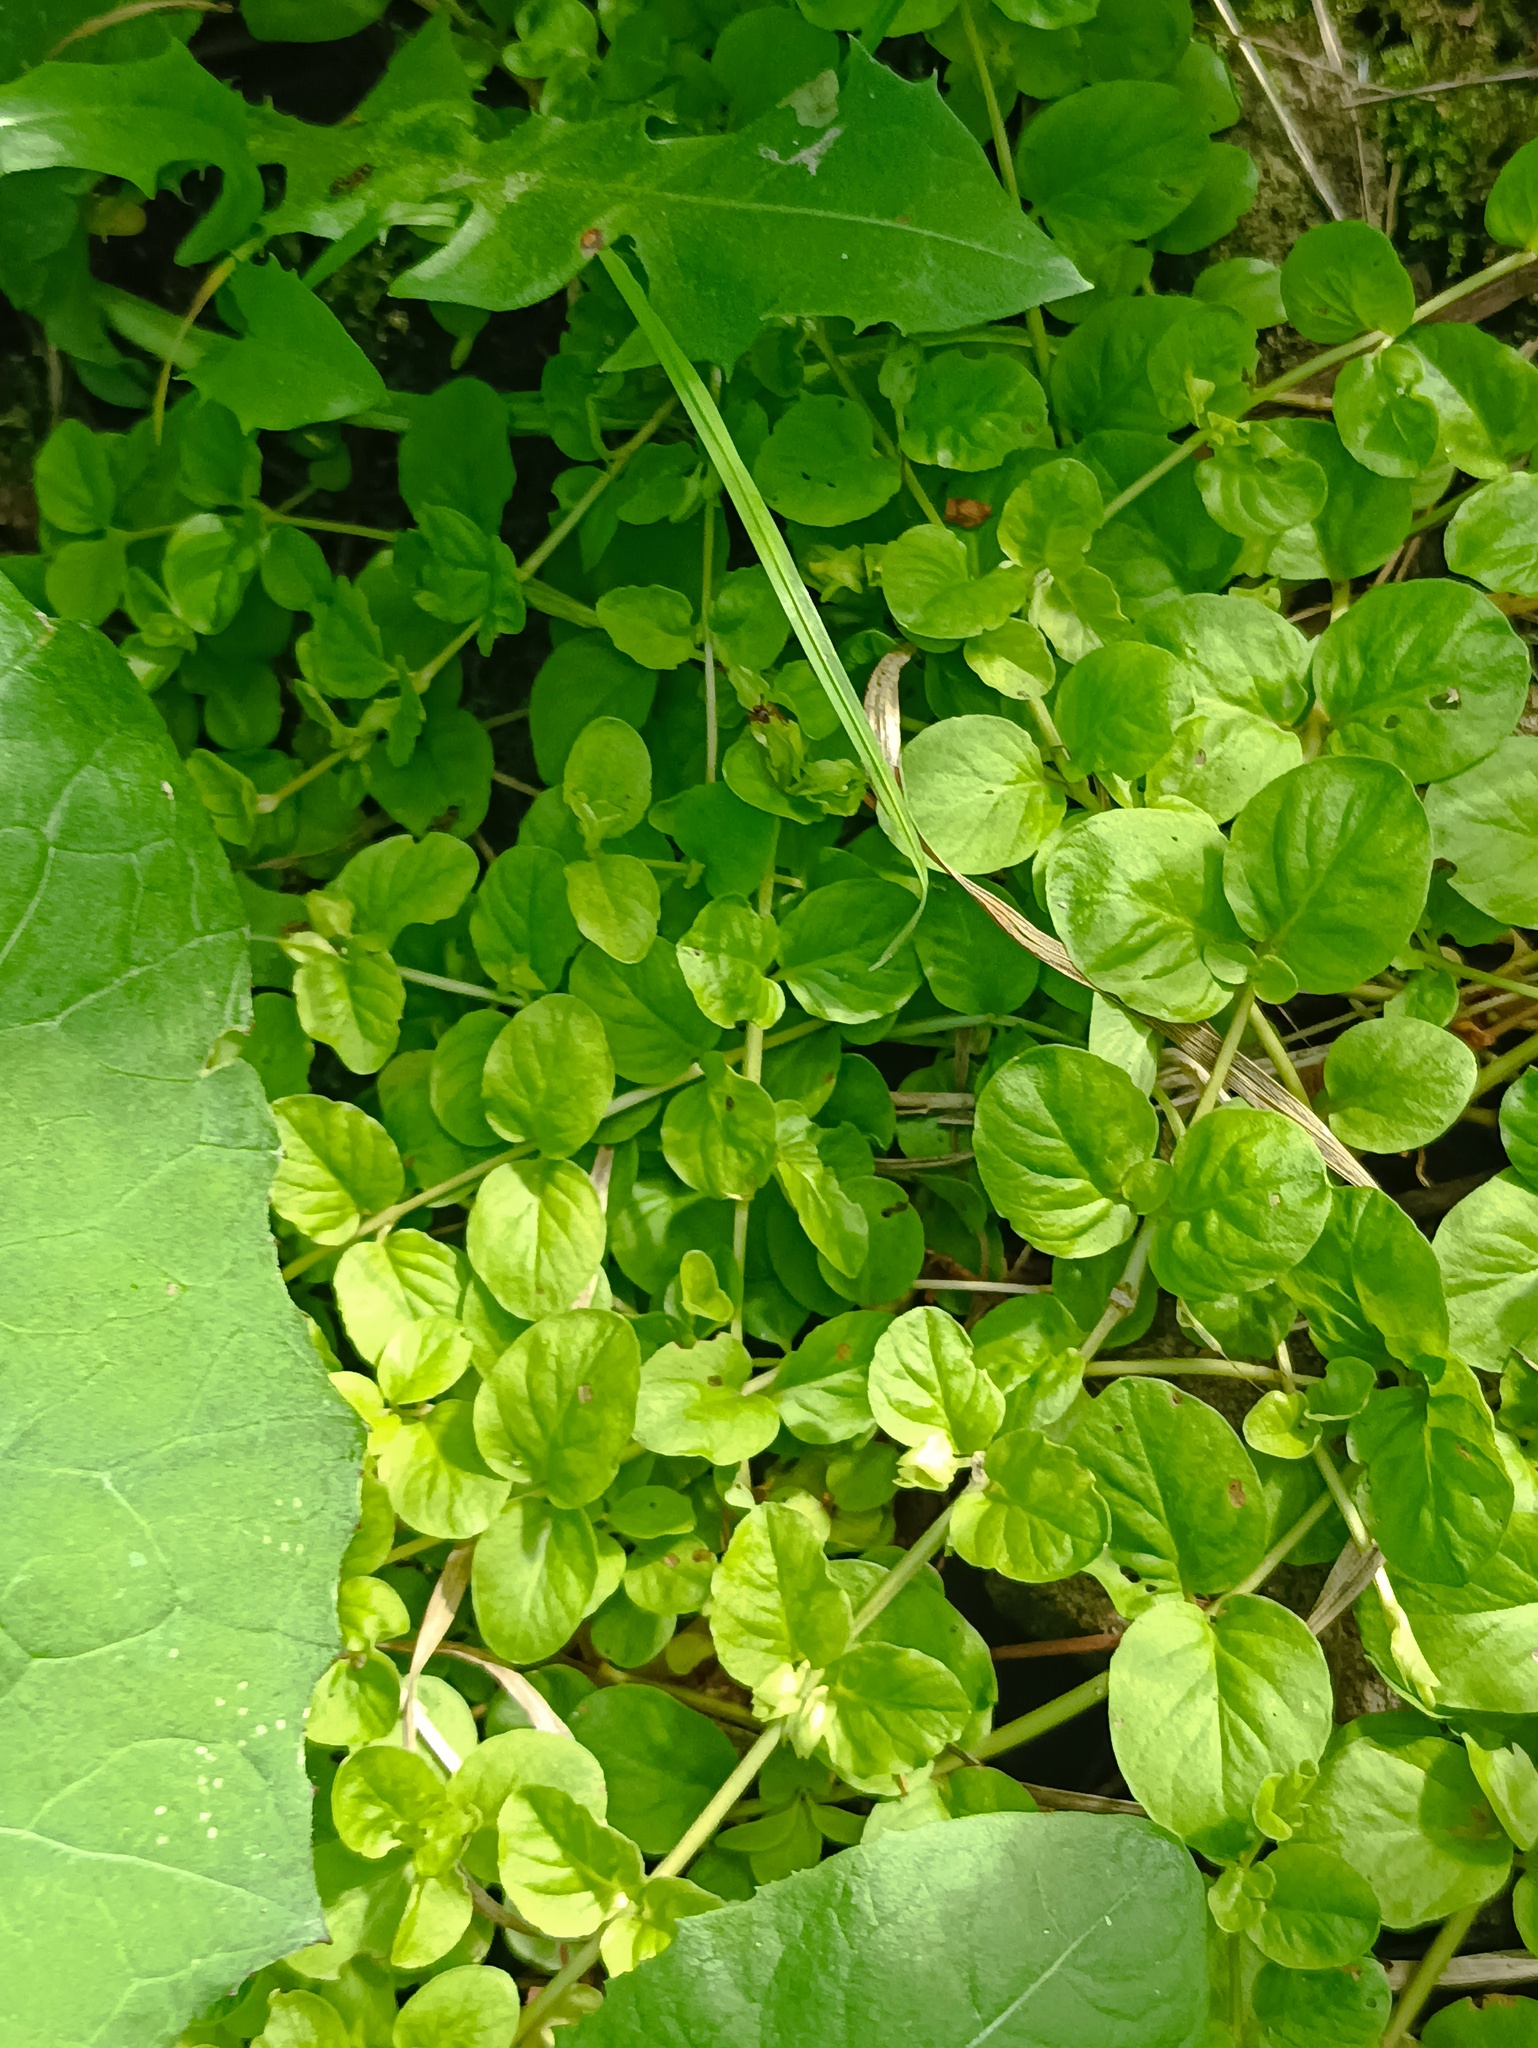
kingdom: Plantae
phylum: Tracheophyta
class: Magnoliopsida
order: Ericales
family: Primulaceae
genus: Lysimachia
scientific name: Lysimachia nummularia
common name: Moneywort
